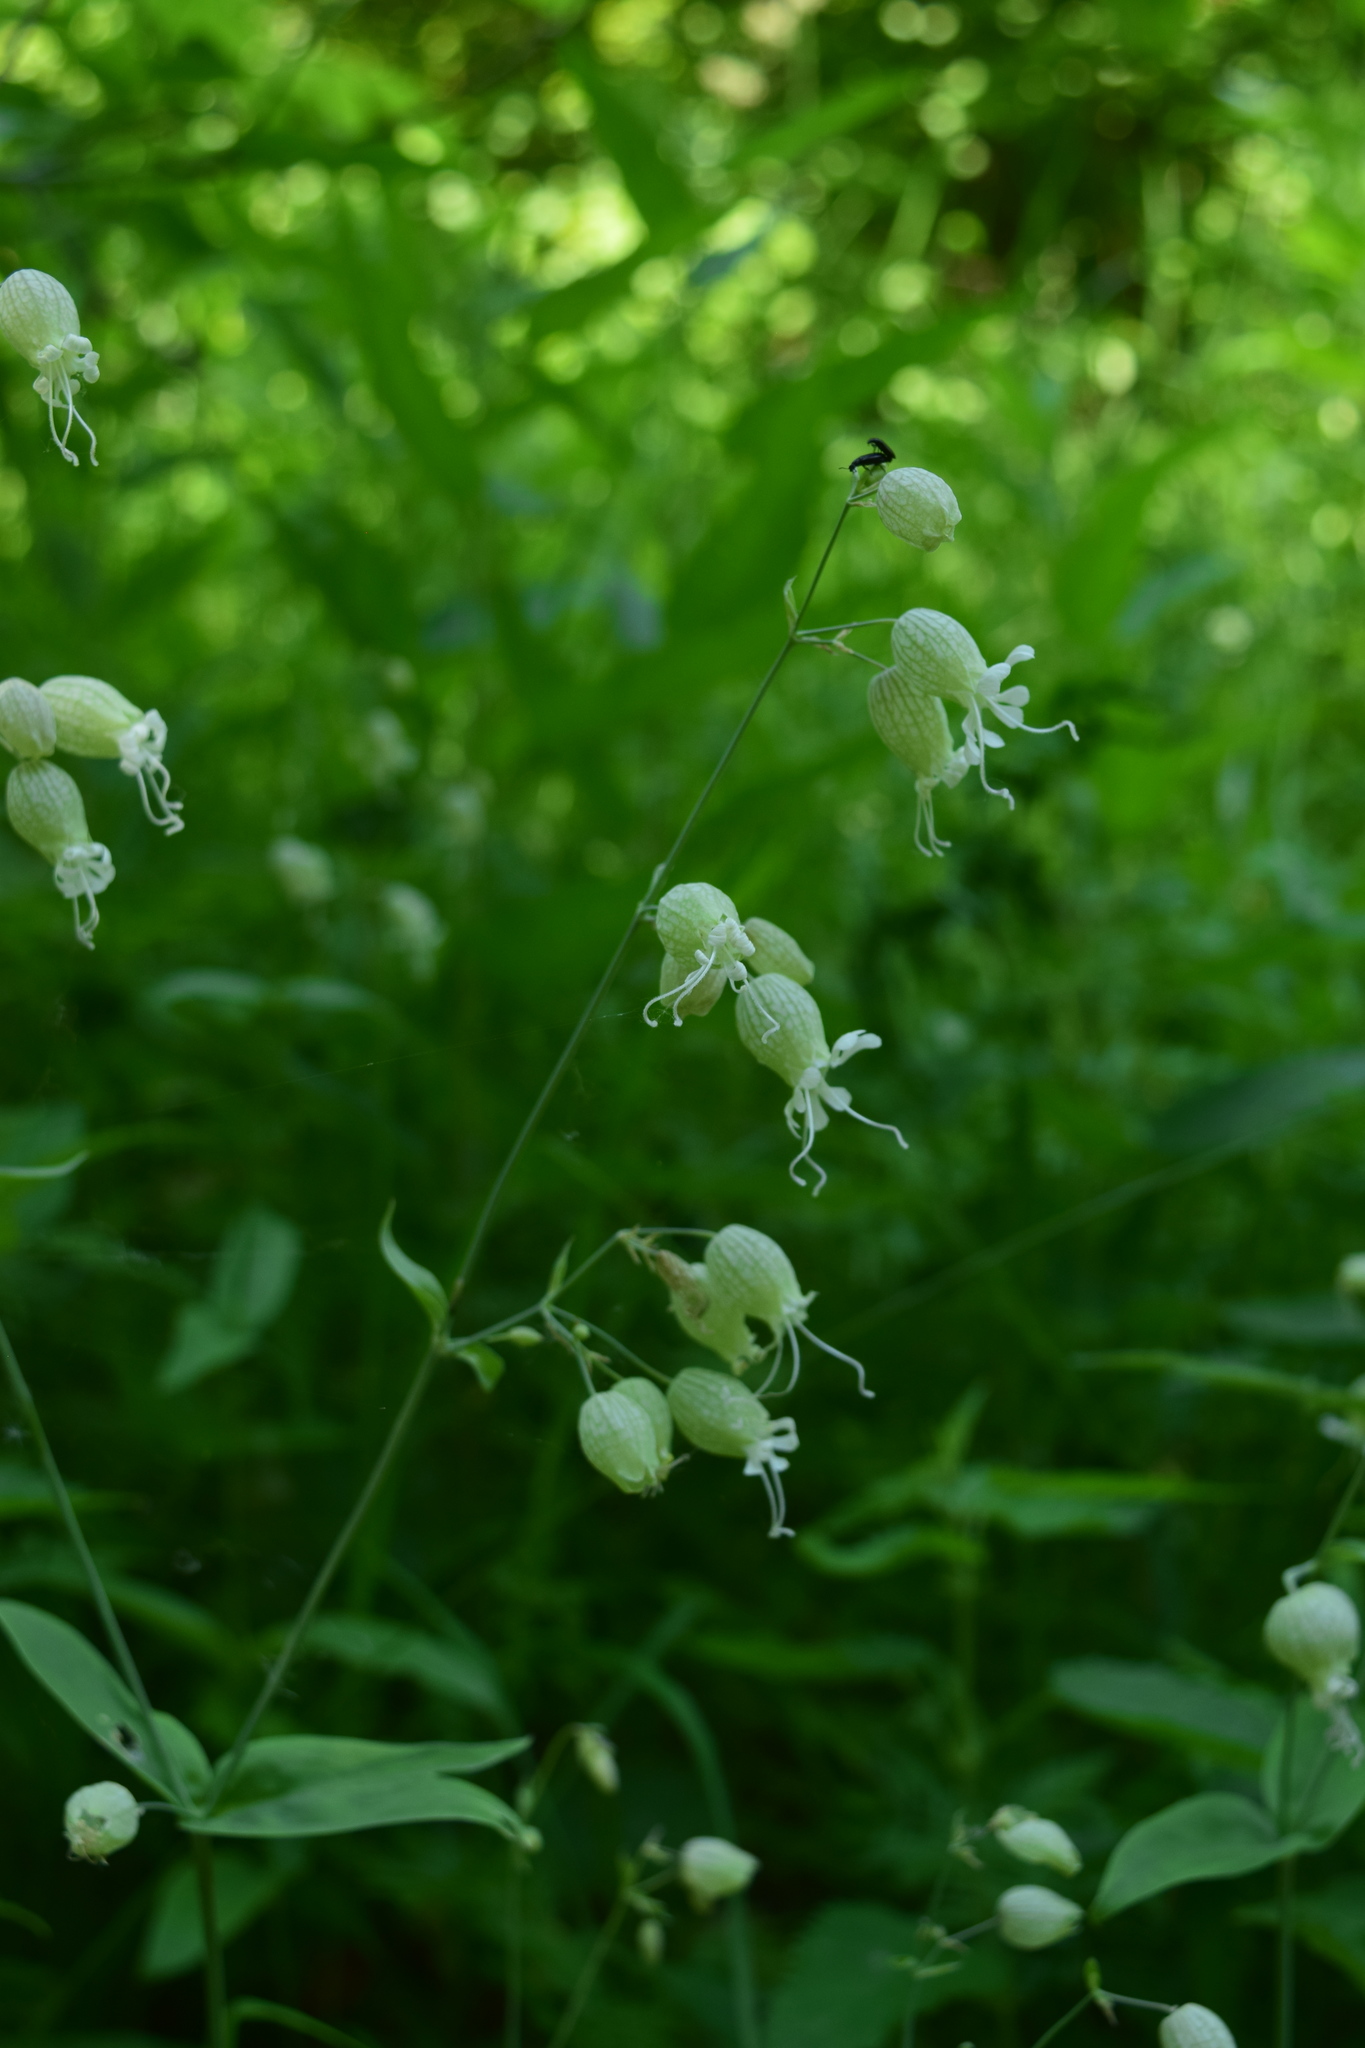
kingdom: Plantae
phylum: Tracheophyta
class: Magnoliopsida
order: Caryophyllales
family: Caryophyllaceae
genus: Silene
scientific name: Silene vulgaris
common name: Bladder campion
